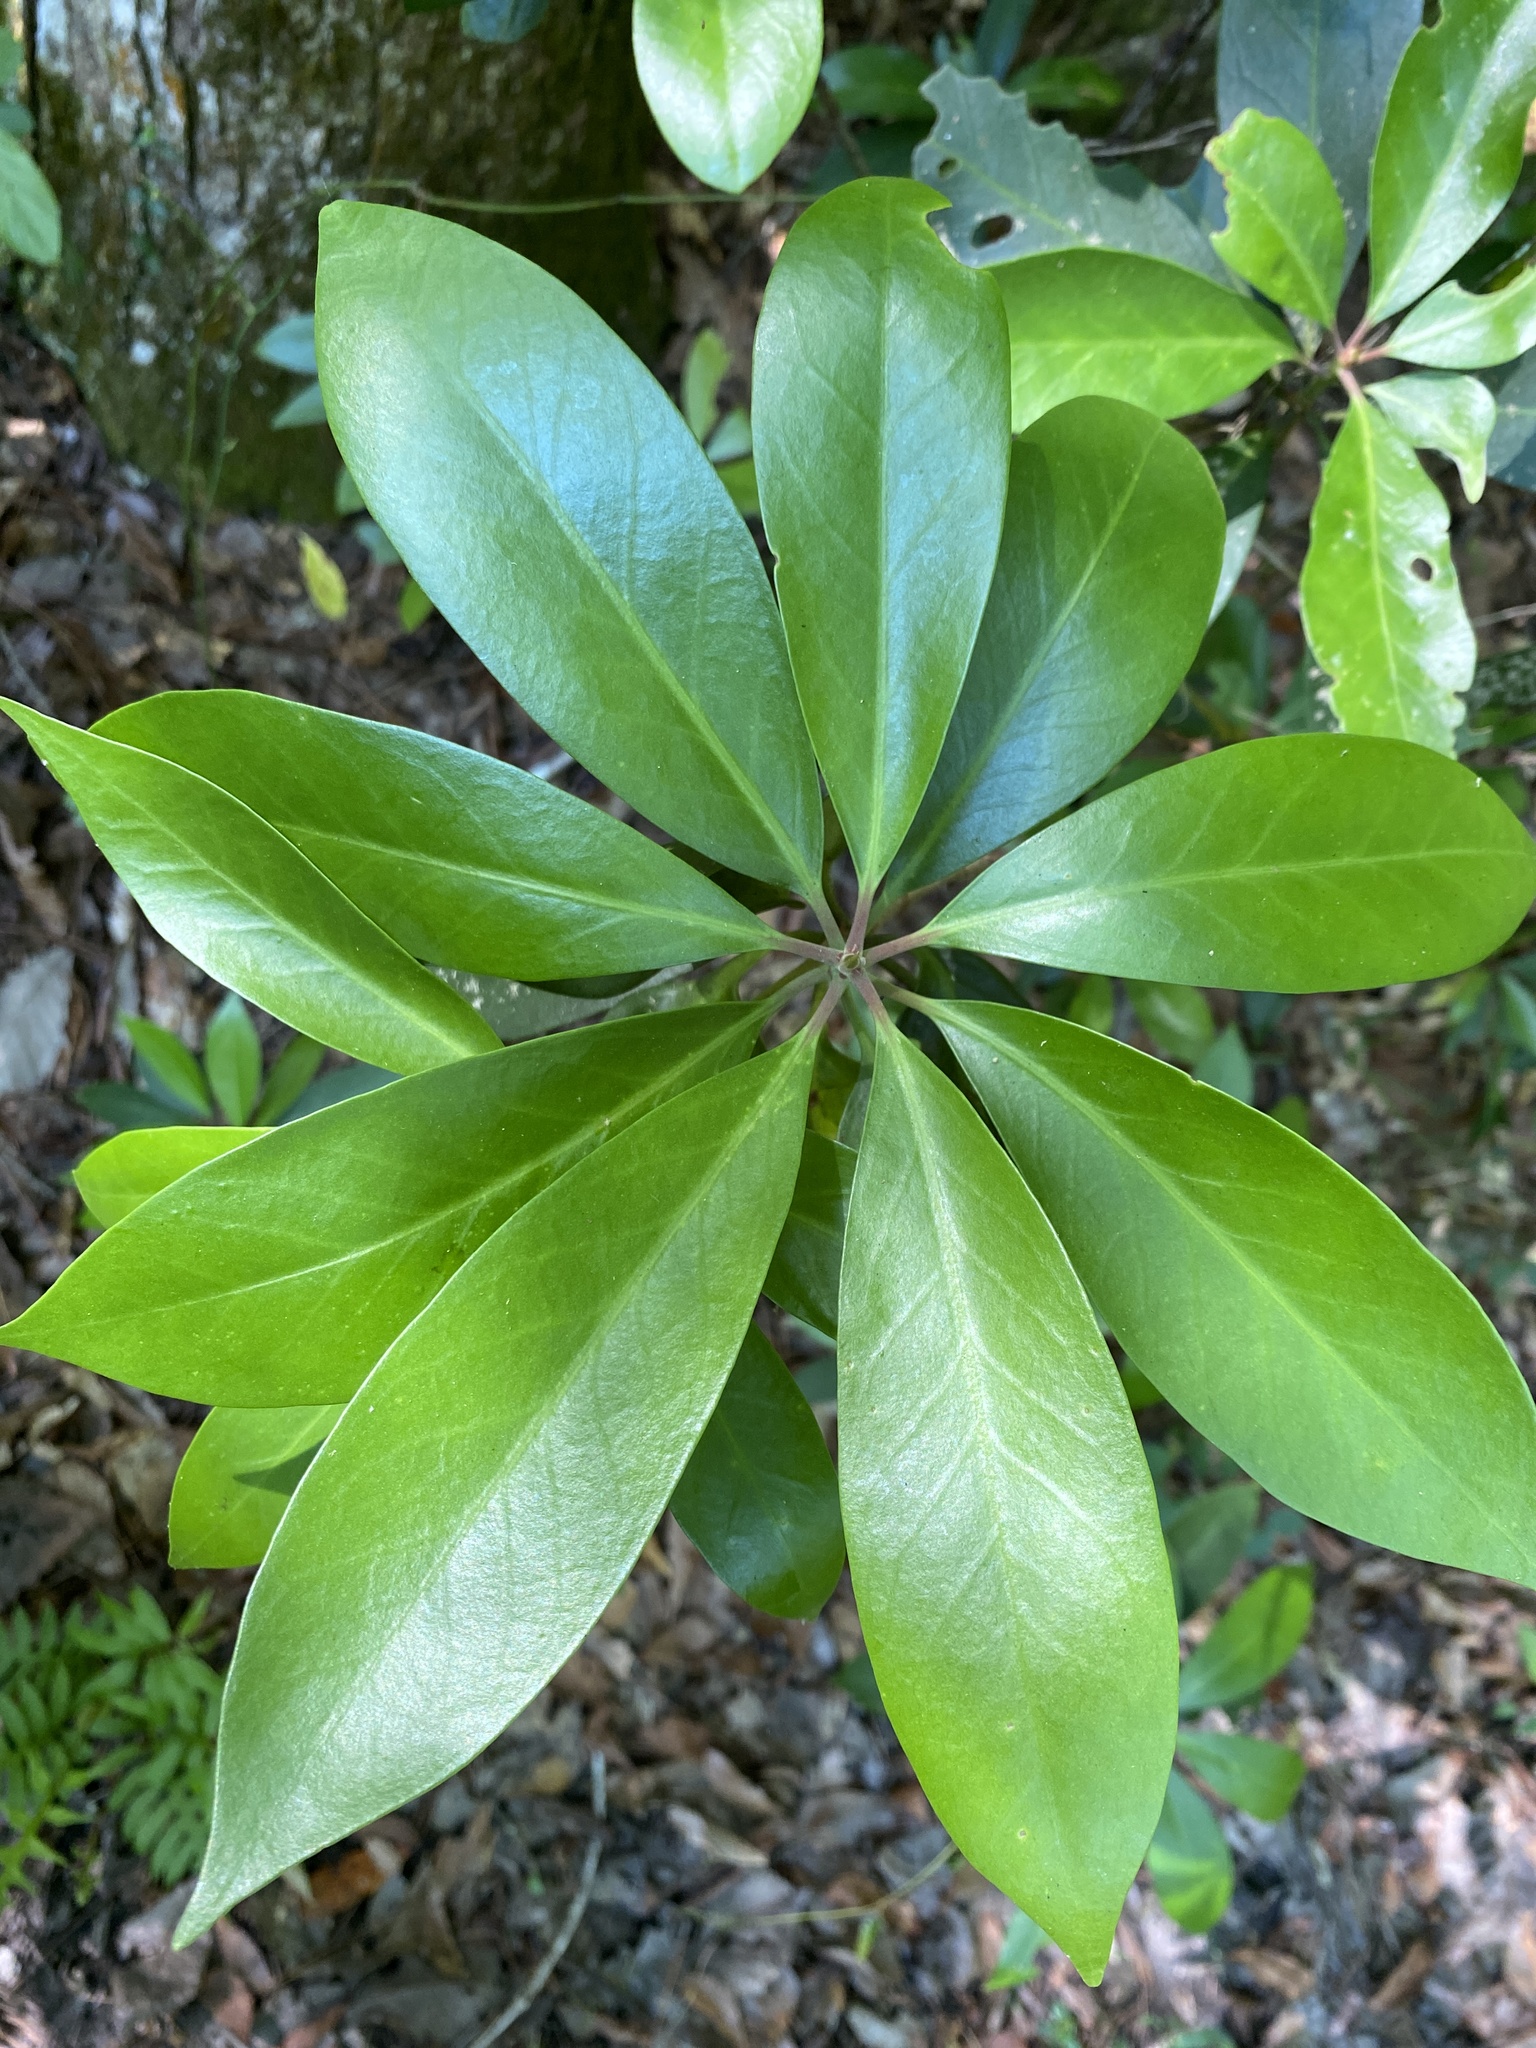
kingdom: Plantae
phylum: Tracheophyta
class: Magnoliopsida
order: Austrobaileyales
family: Schisandraceae
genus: Illicium
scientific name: Illicium floridanum
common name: Florida anisetree
